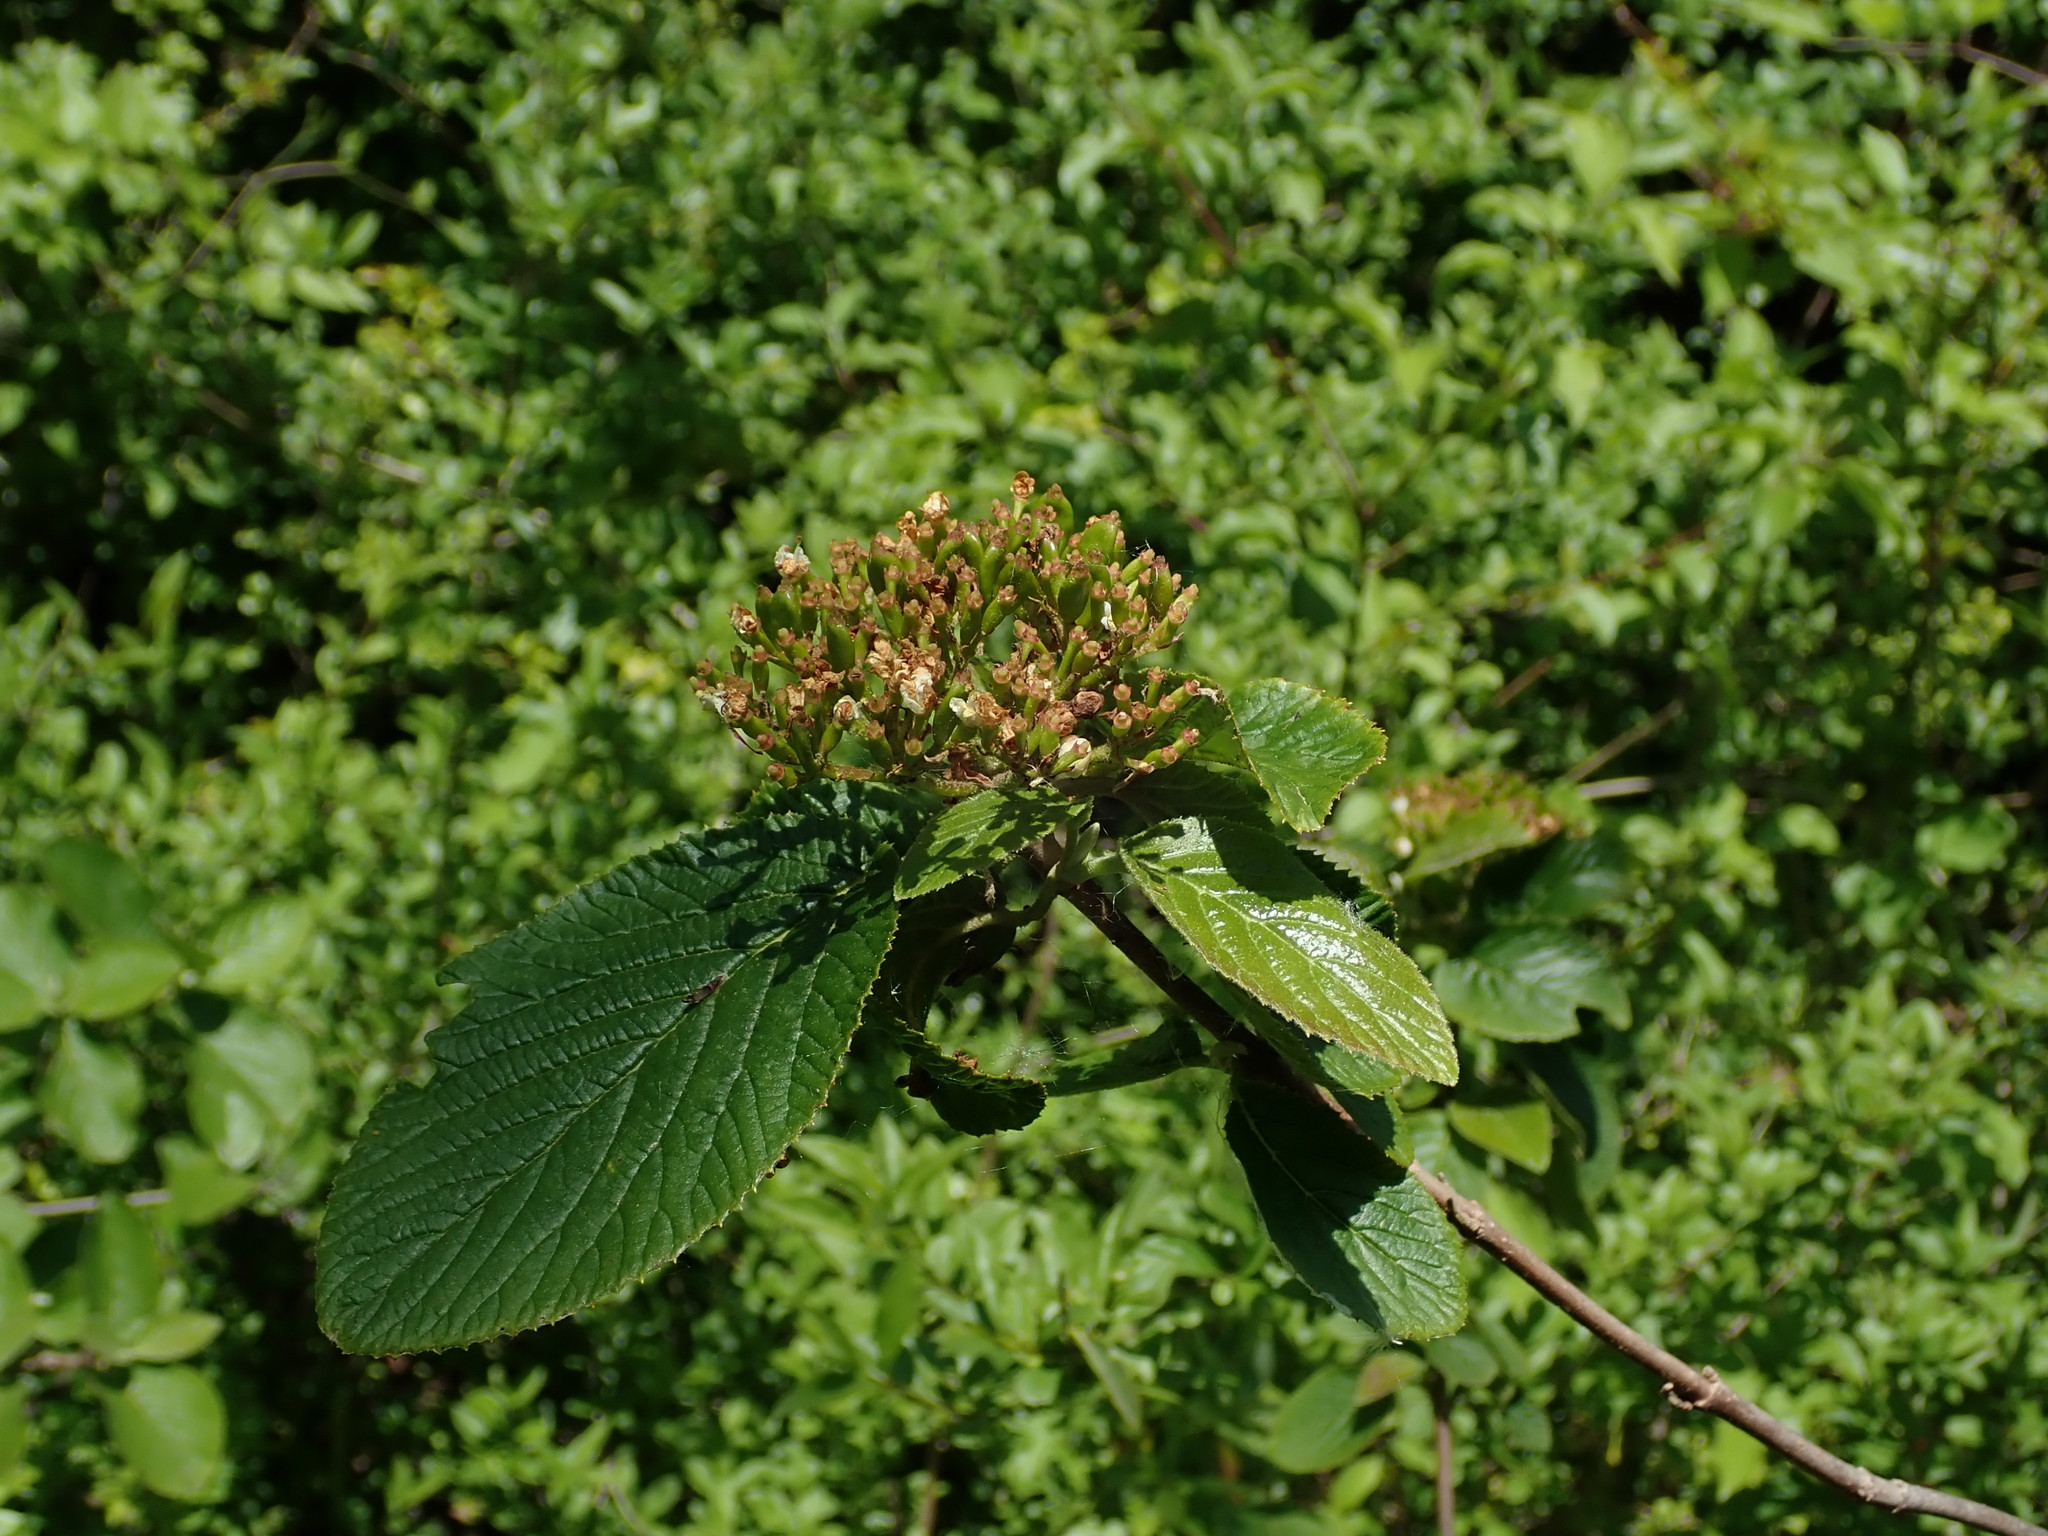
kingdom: Plantae
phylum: Tracheophyta
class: Magnoliopsida
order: Dipsacales
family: Viburnaceae
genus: Viburnum
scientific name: Viburnum lantana
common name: Wayfaring tree
